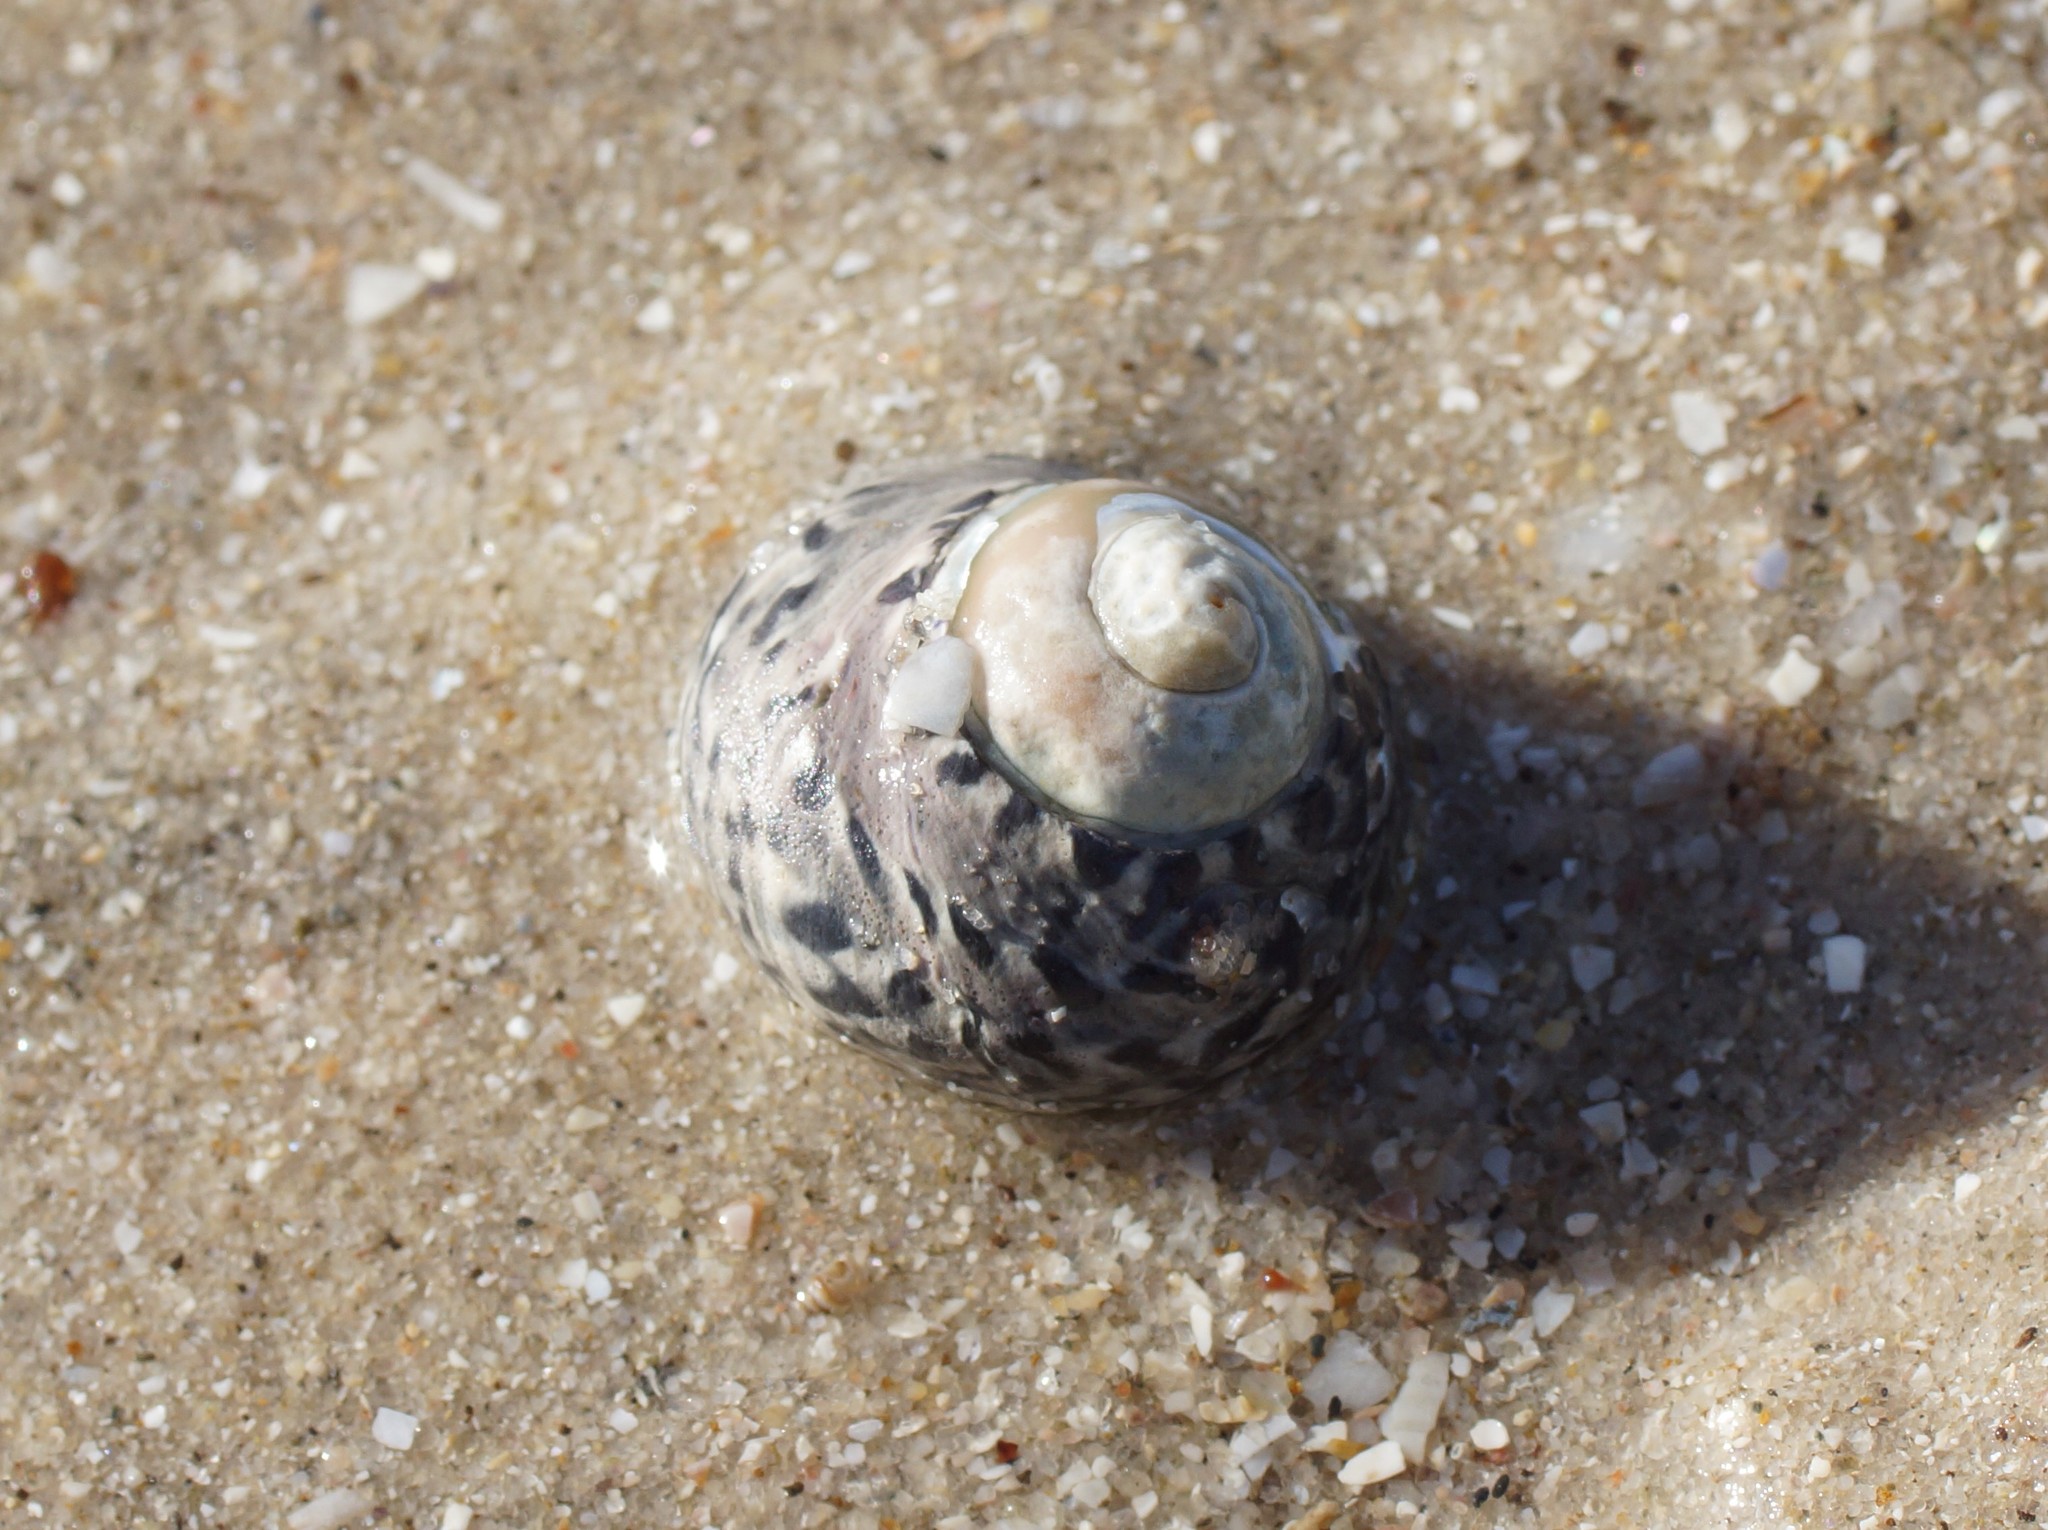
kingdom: Animalia
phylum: Mollusca
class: Gastropoda
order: Trochida
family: Trochidae
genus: Austrocochlea
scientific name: Austrocochlea porcata
